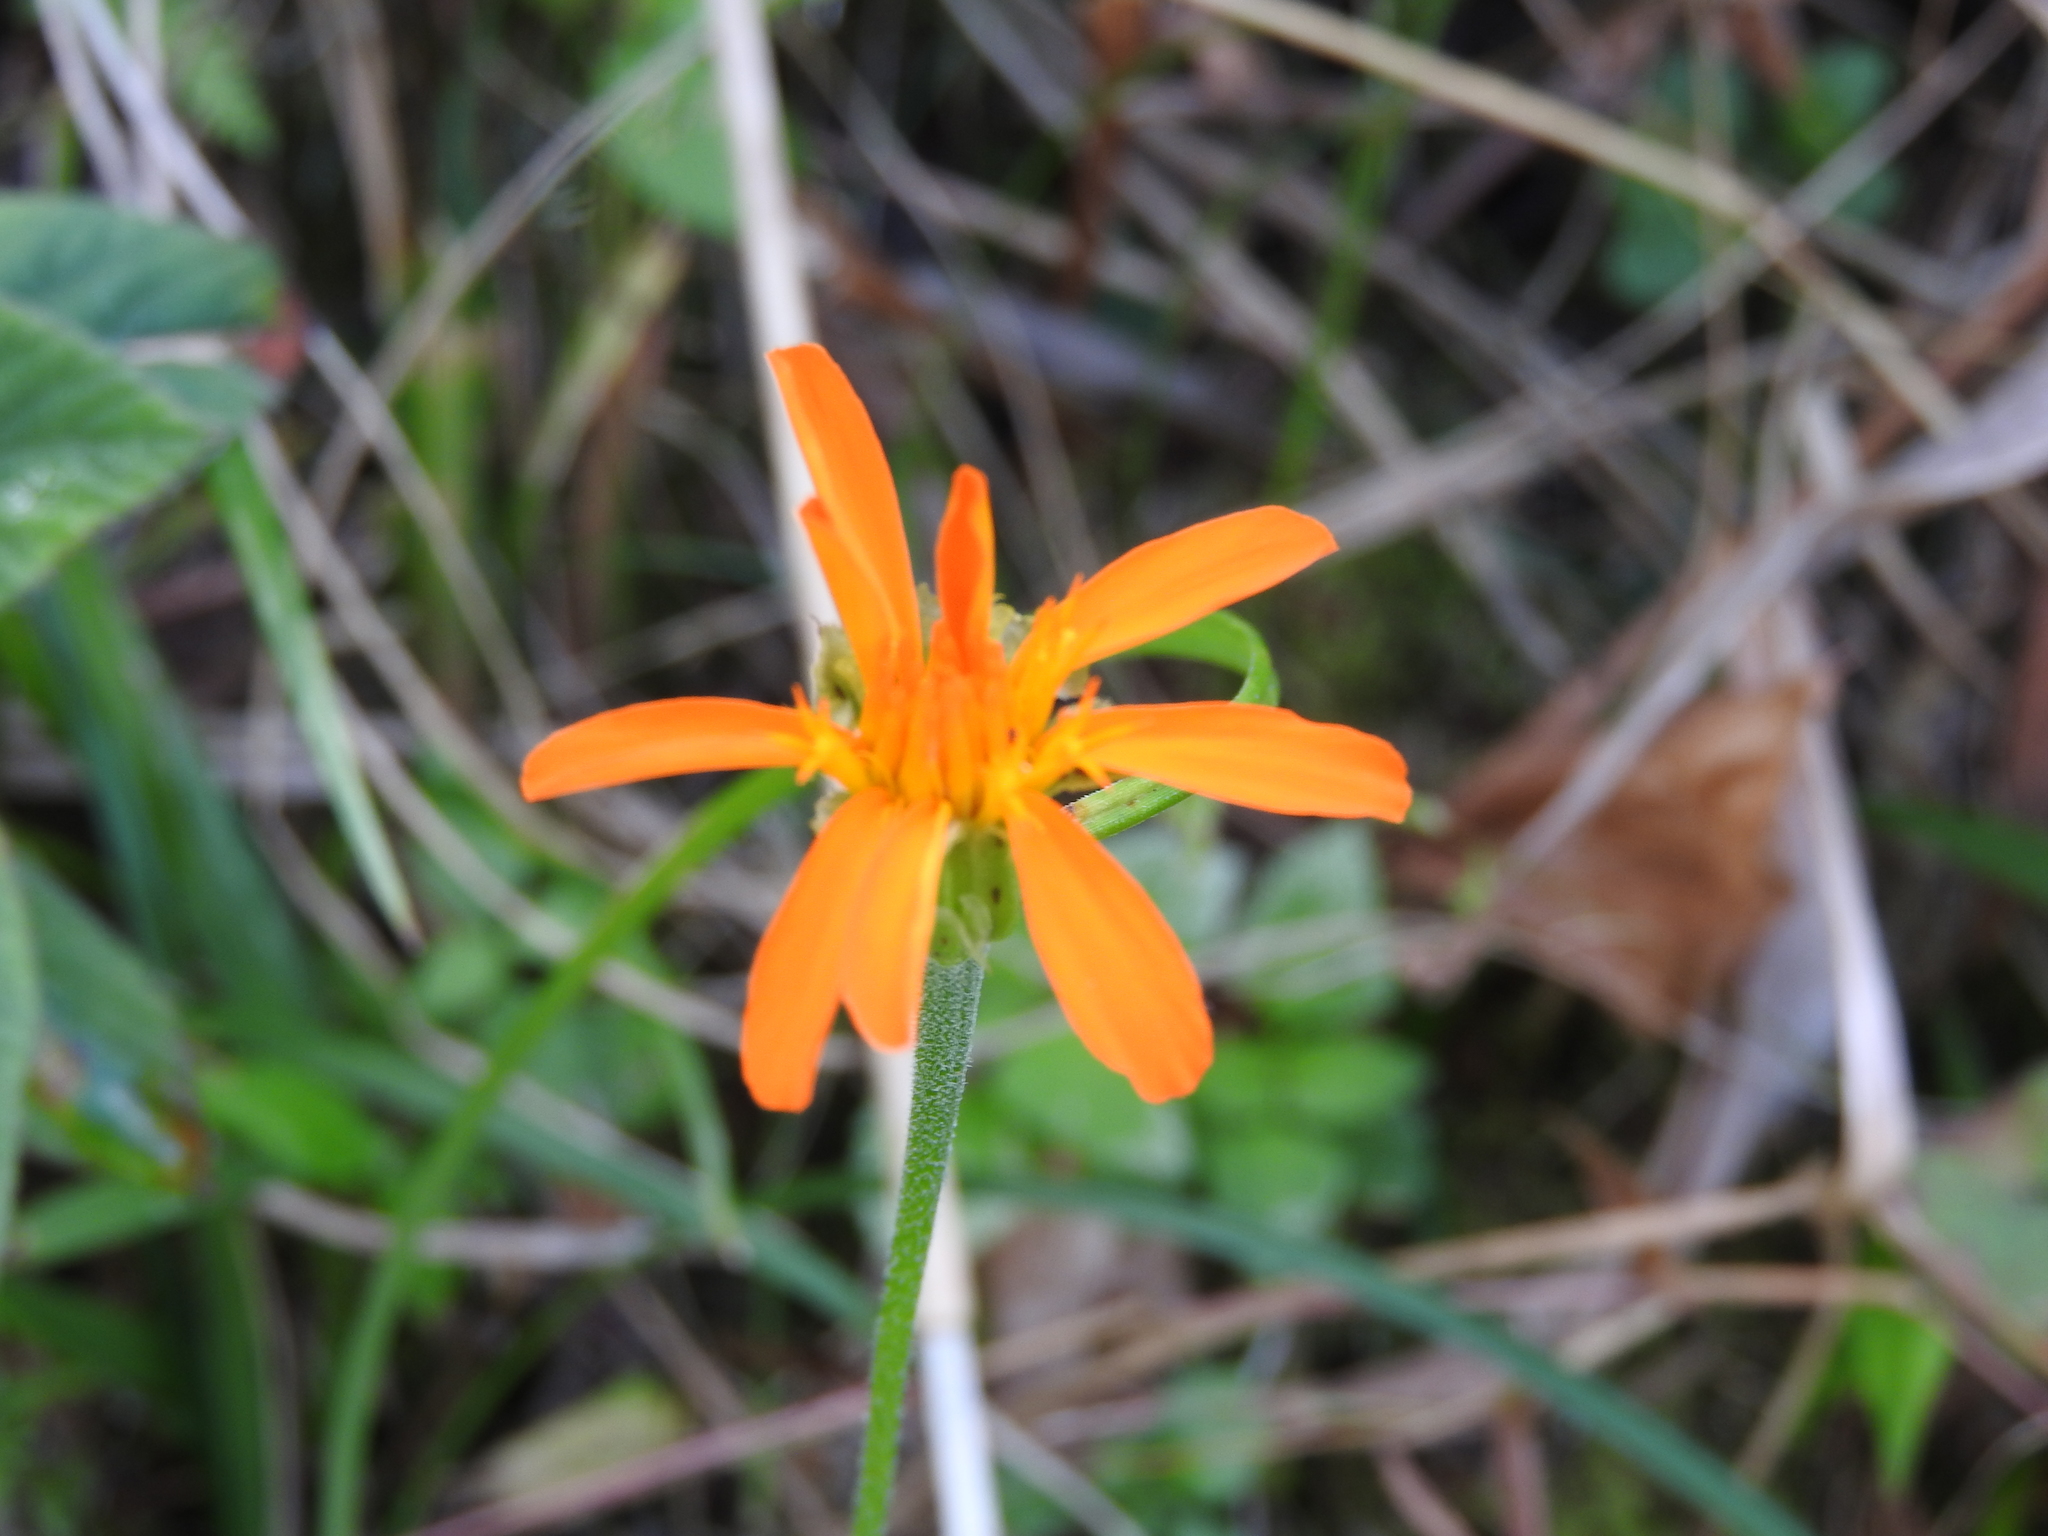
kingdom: Plantae
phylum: Tracheophyta
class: Magnoliopsida
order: Asterales
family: Asteraceae
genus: Pseudogynoxys
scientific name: Pseudogynoxys haenkei
